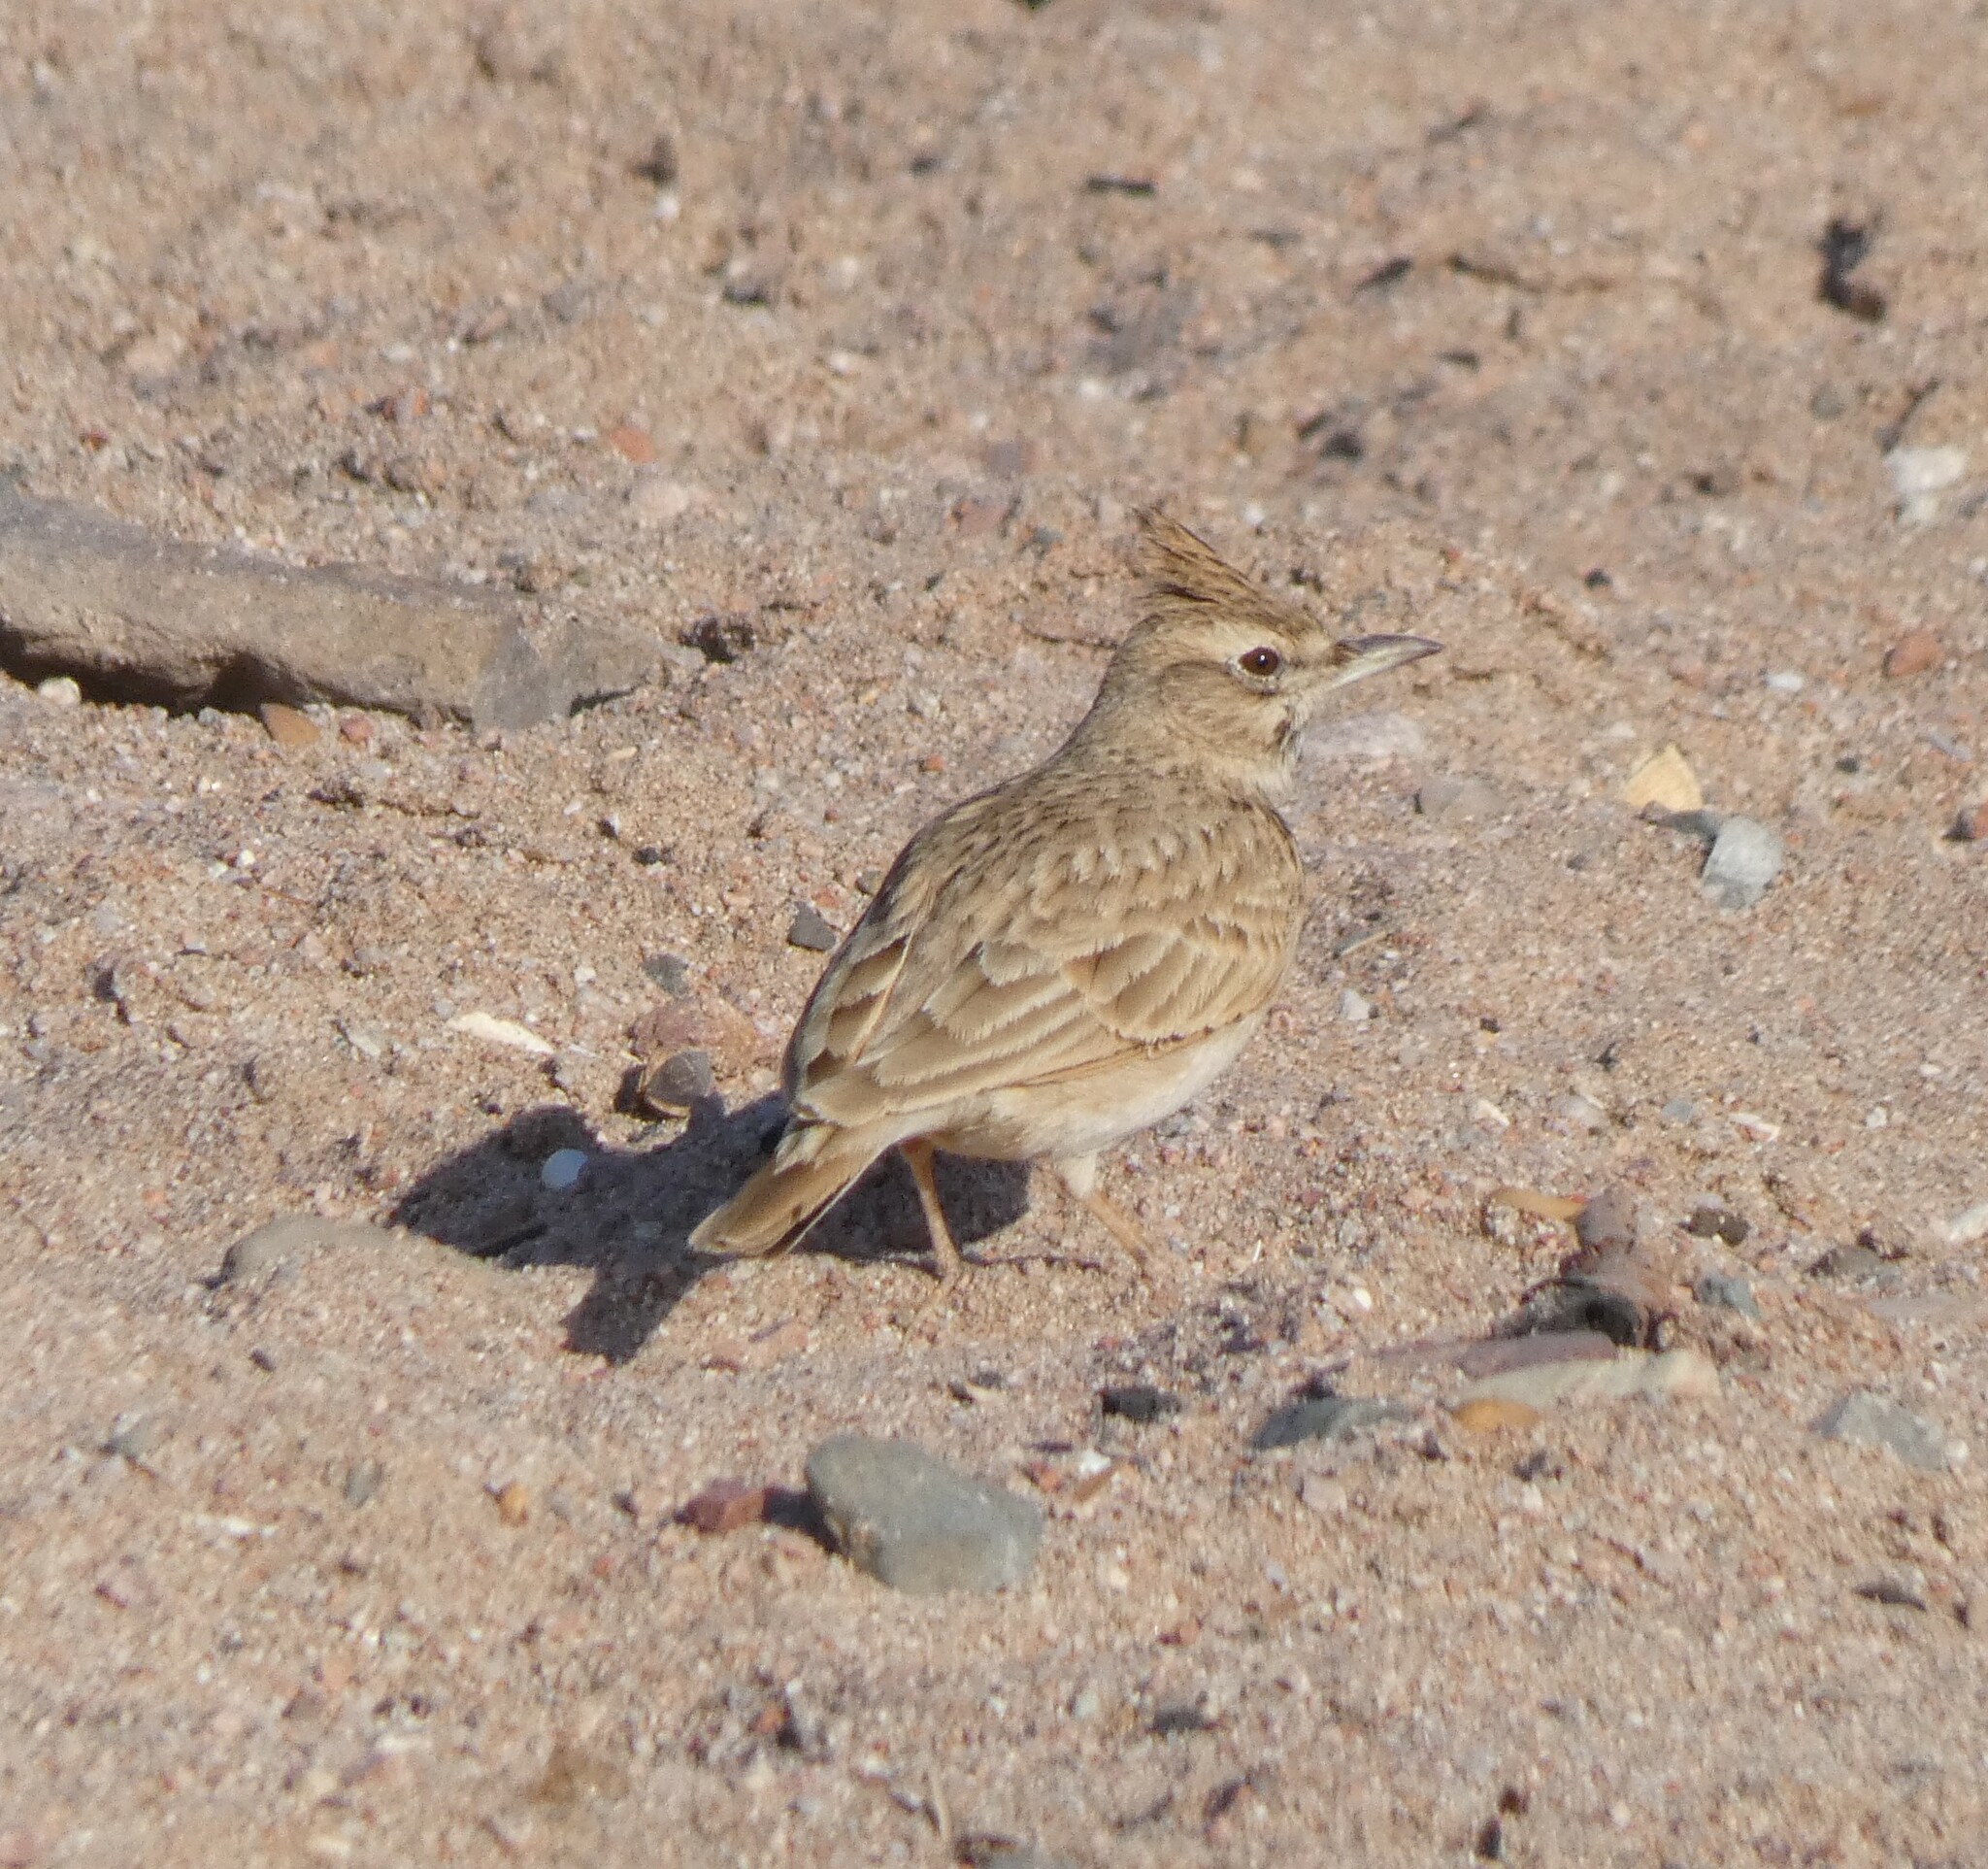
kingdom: Animalia
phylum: Chordata
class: Aves
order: Passeriformes
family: Alaudidae
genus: Galerida
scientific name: Galerida cristata
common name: Crested lark
